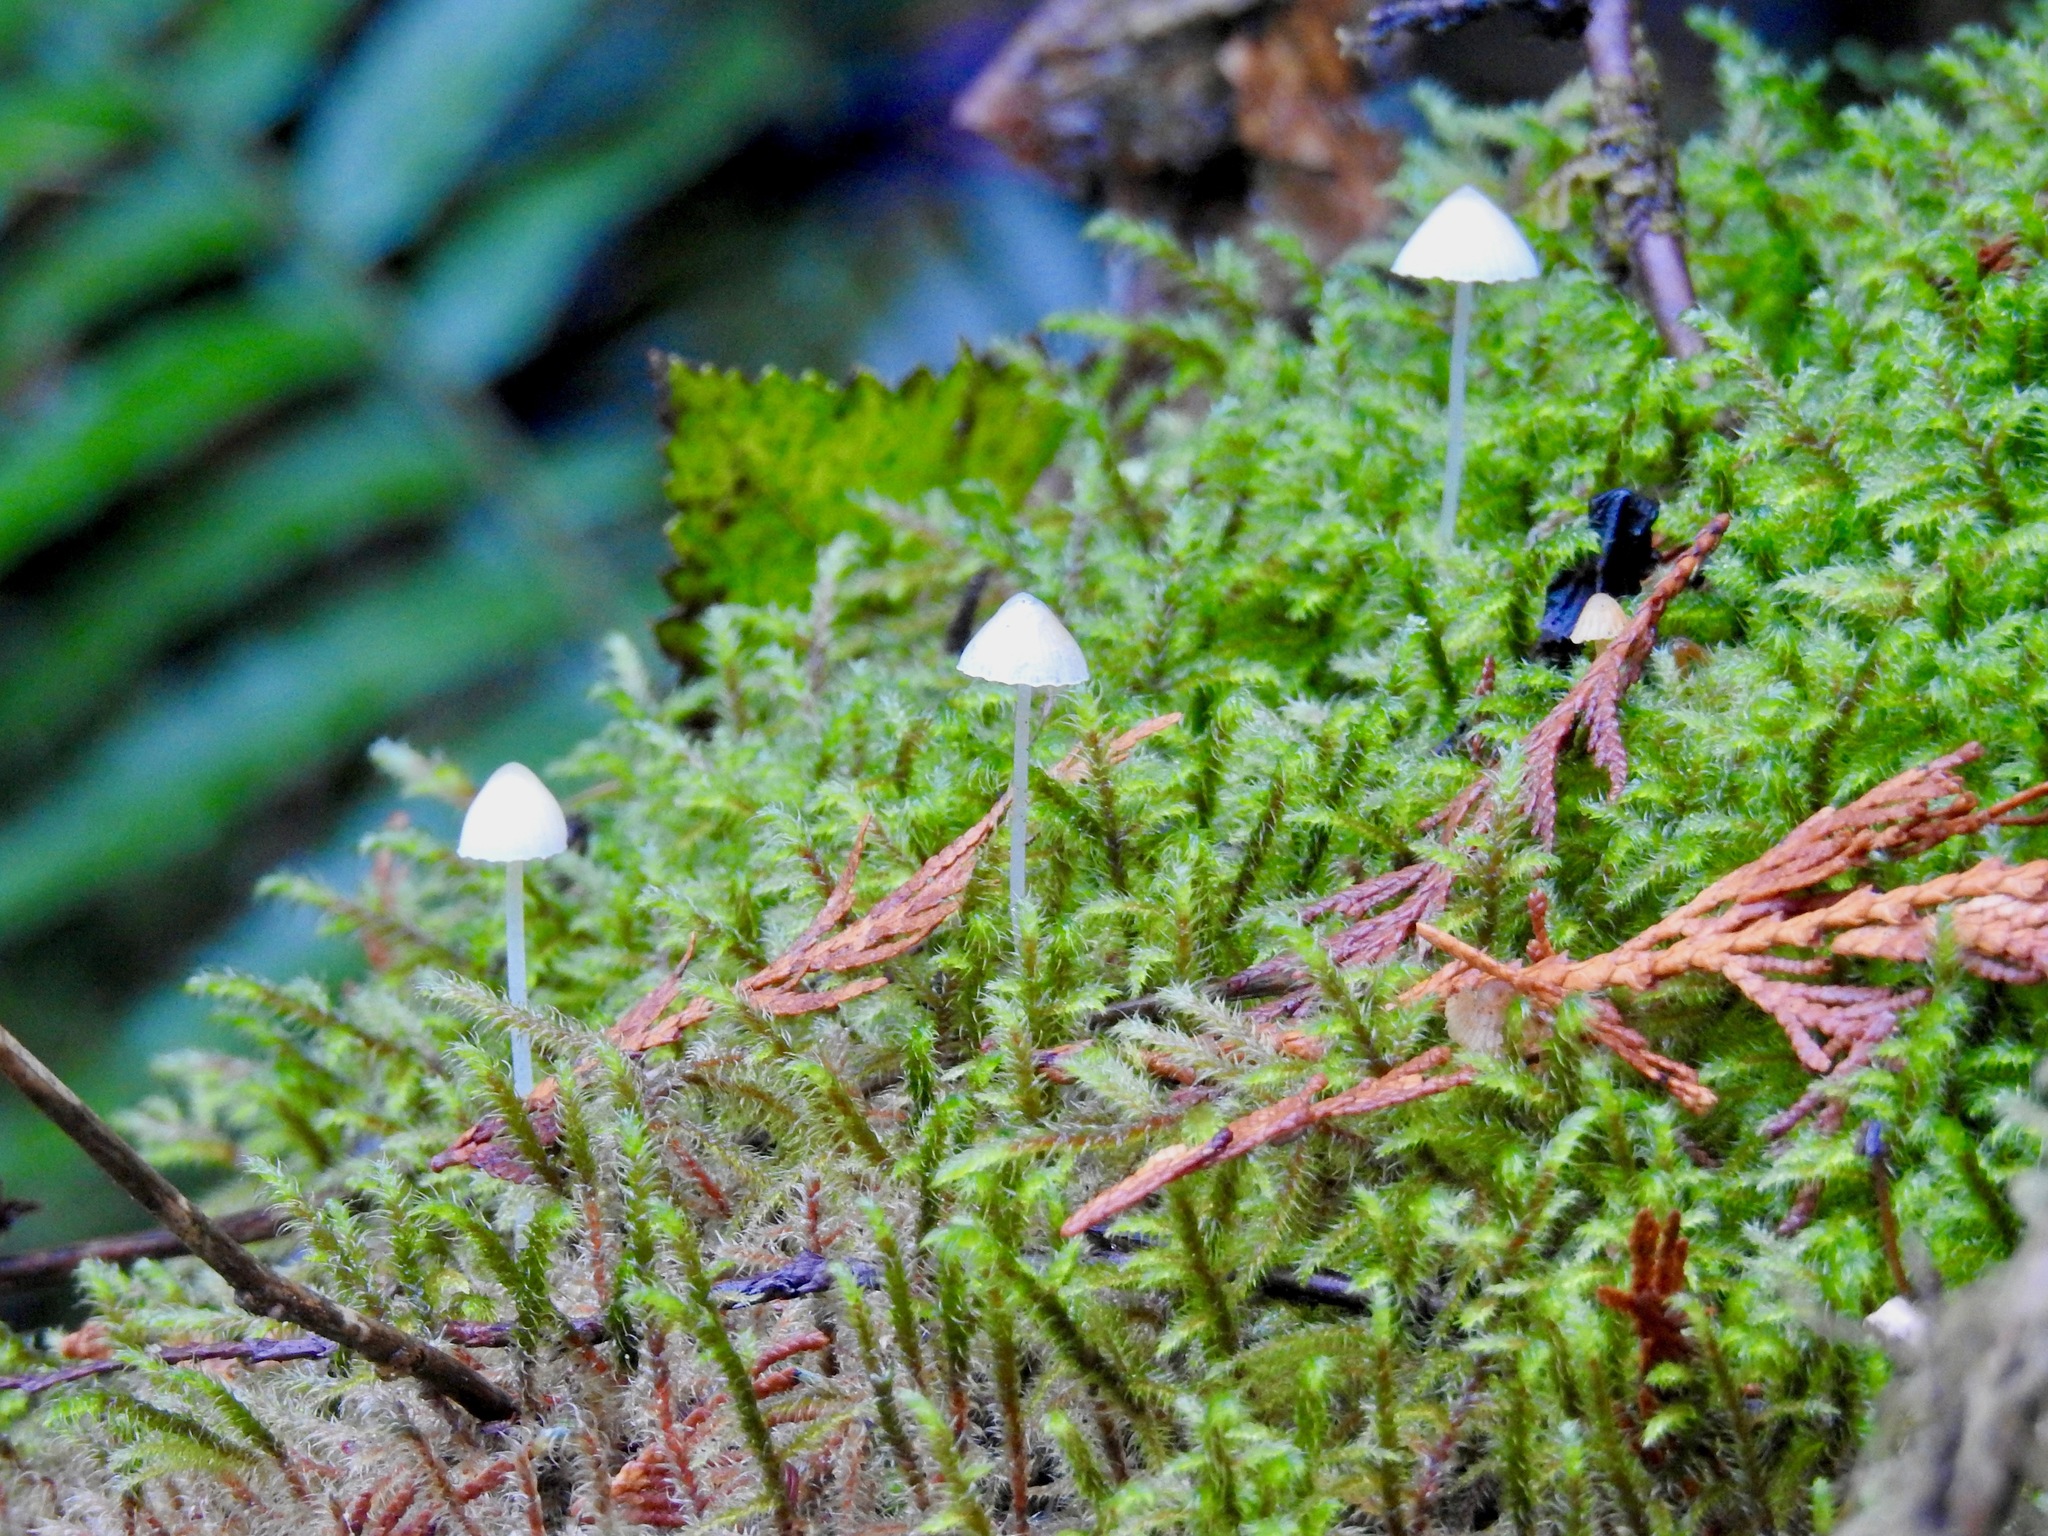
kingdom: Plantae
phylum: Bryophyta
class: Bryopsida
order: Hypnales
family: Hylocomiaceae
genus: Rhytidiadelphus
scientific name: Rhytidiadelphus loreus
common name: Lanky moss
